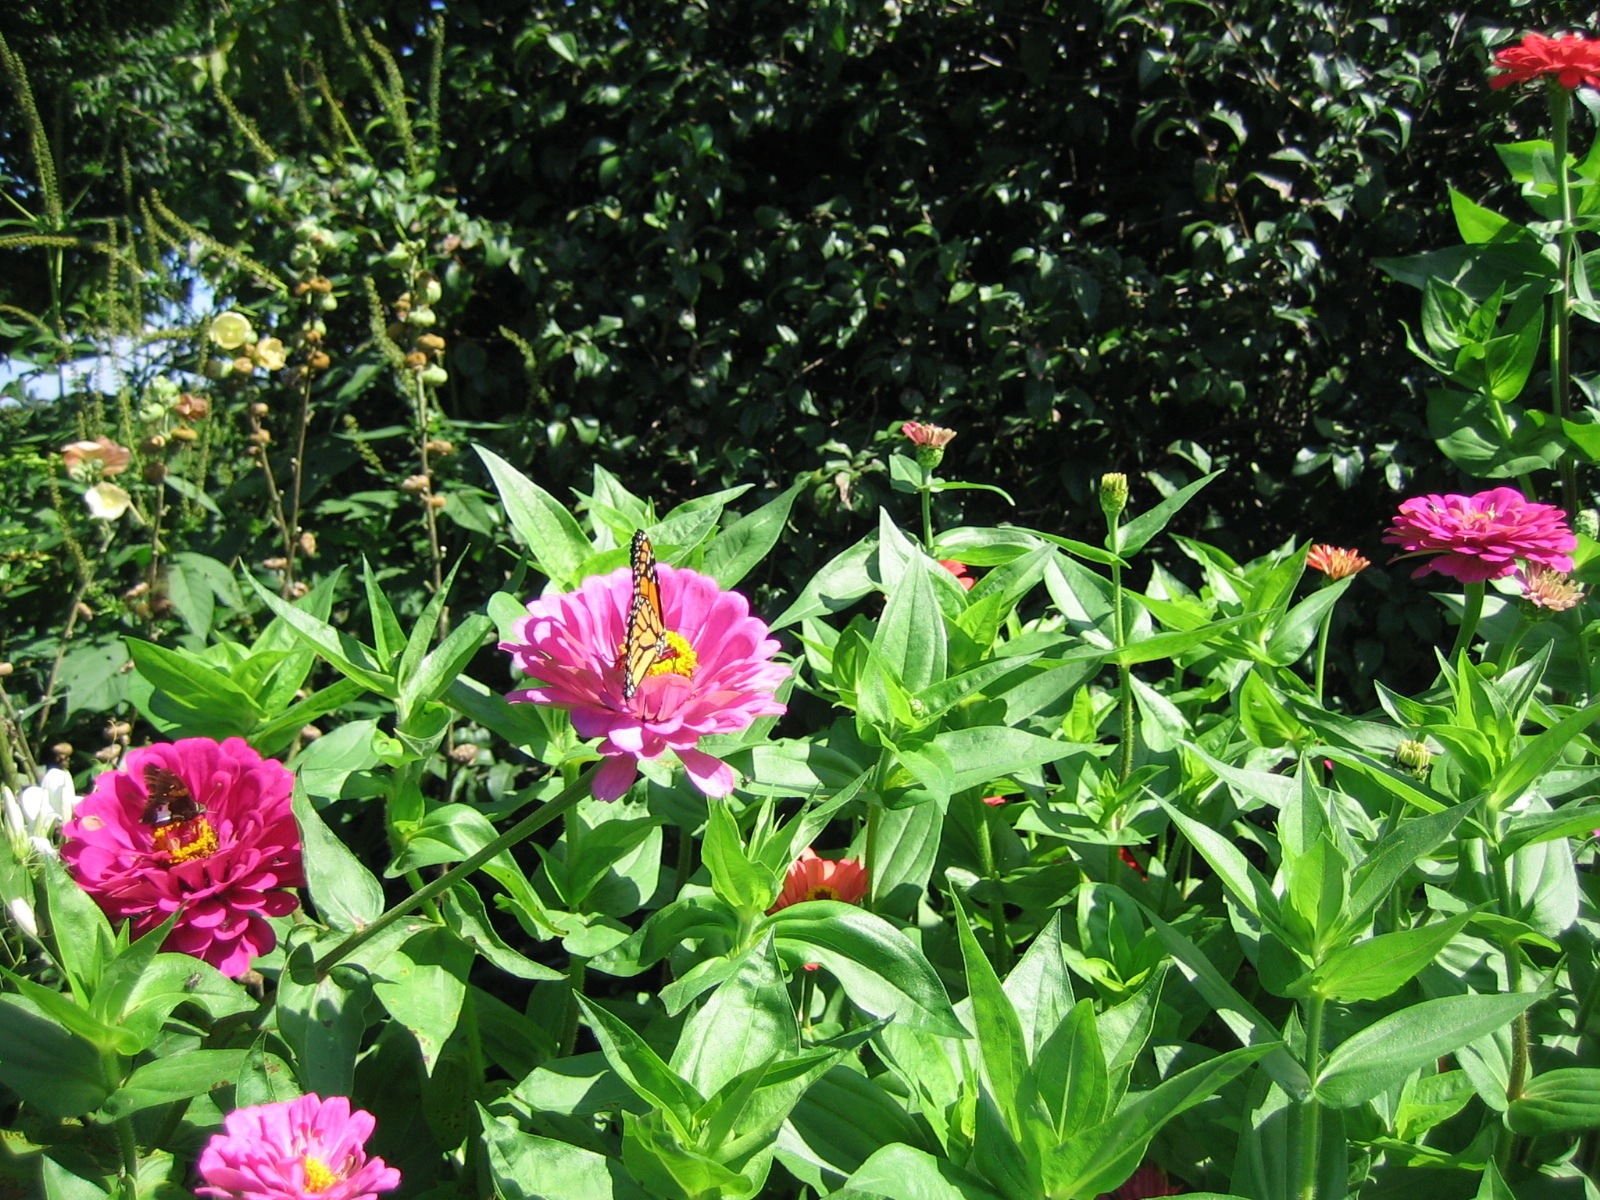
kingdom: Animalia
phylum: Arthropoda
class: Insecta
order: Lepidoptera
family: Nymphalidae
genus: Danaus
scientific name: Danaus plexippus
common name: Monarch
